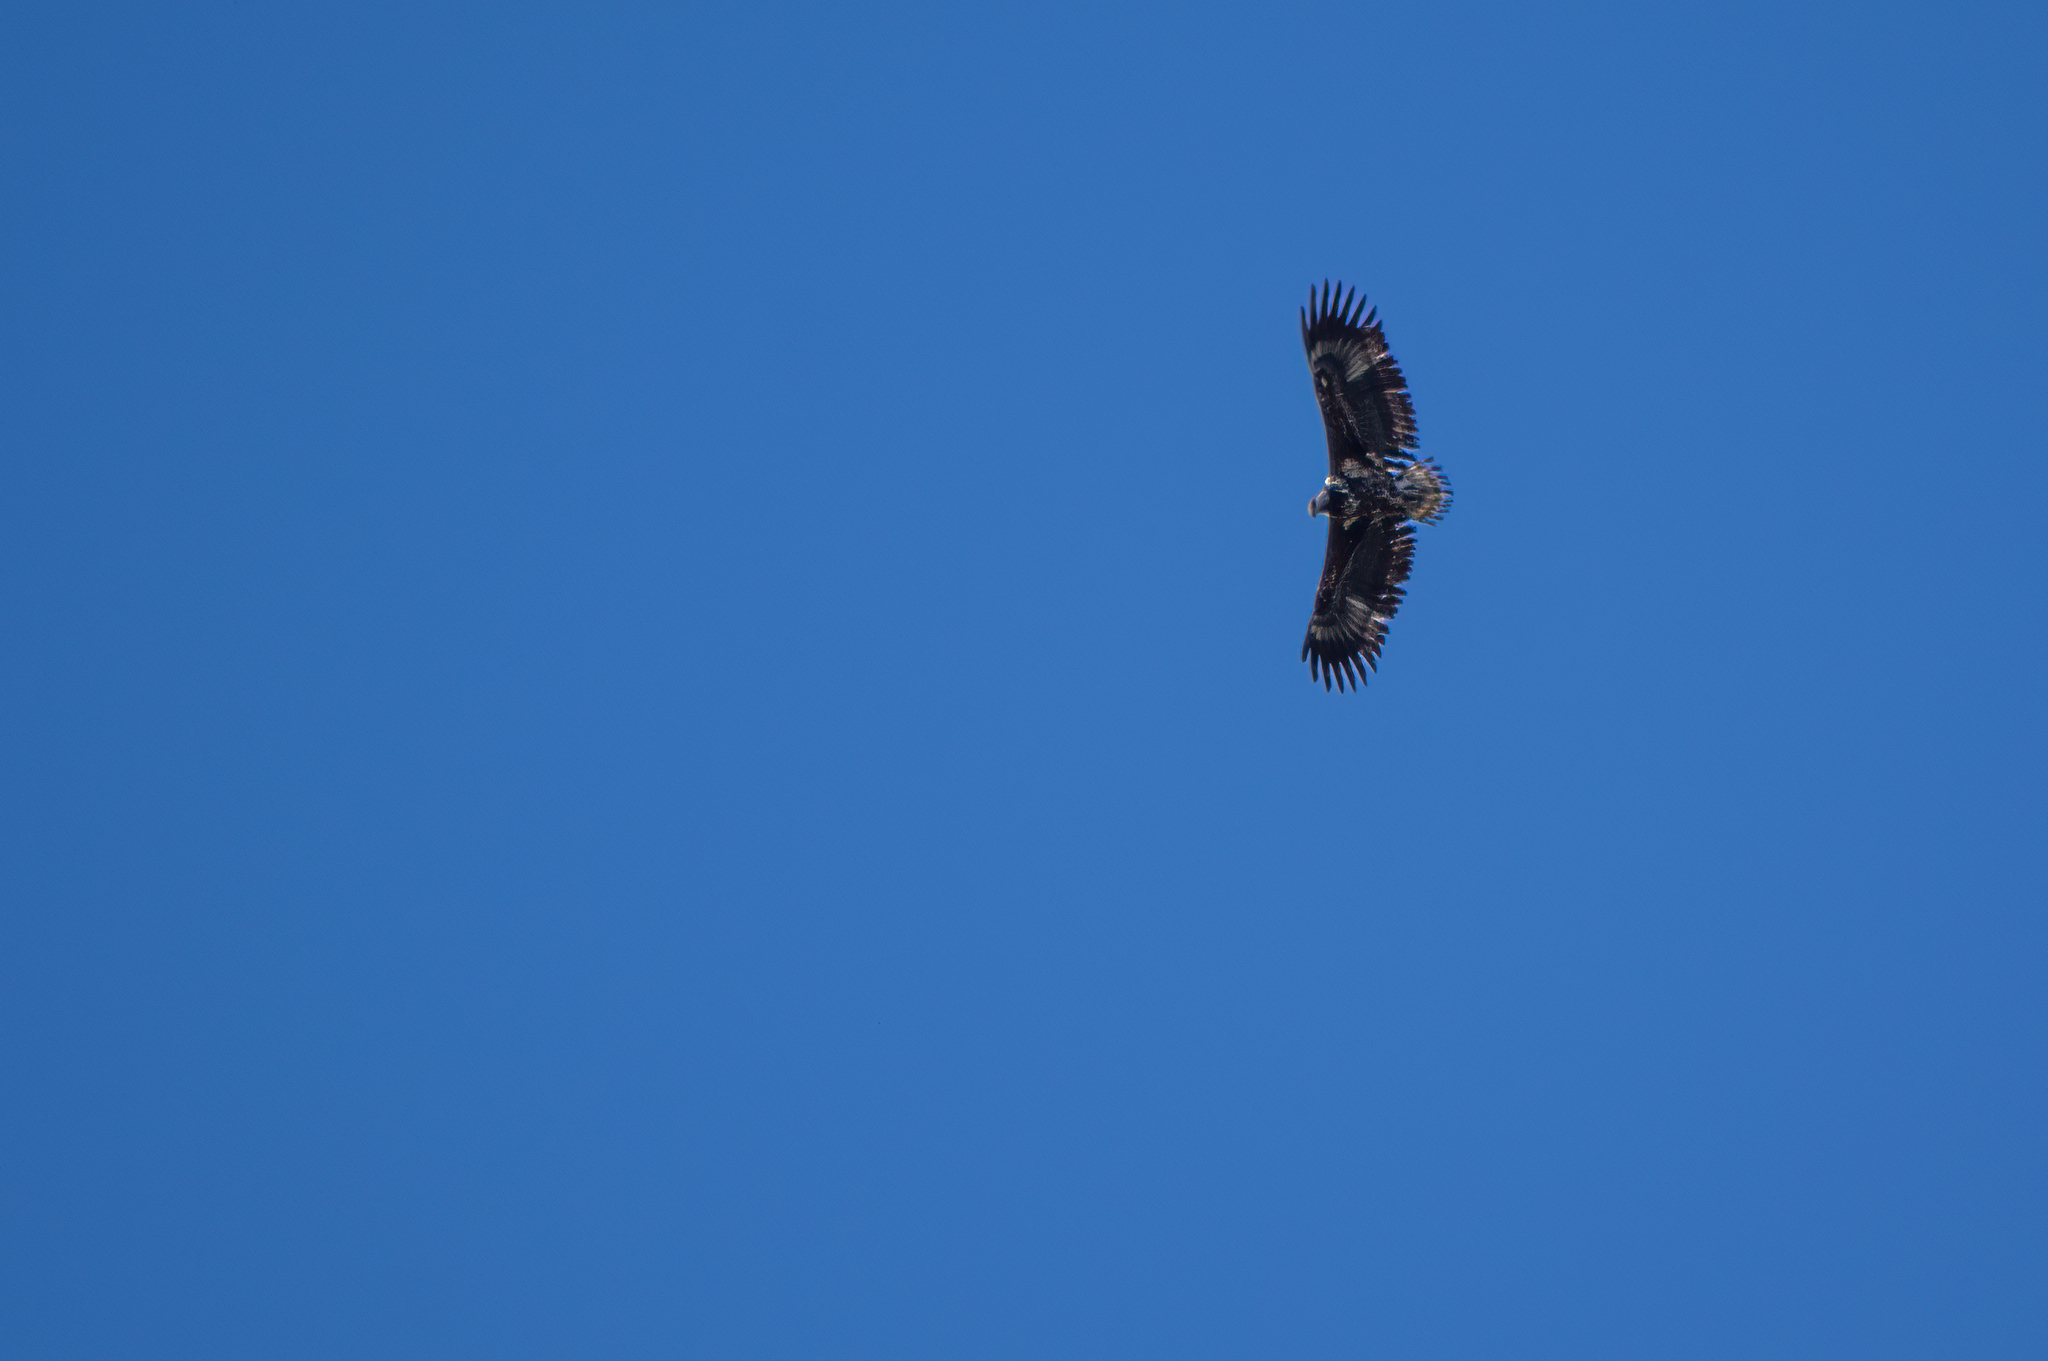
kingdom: Animalia
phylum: Chordata
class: Aves
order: Accipitriformes
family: Accipitridae
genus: Haliaeetus
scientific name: Haliaeetus vocifer
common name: African fish eagle
